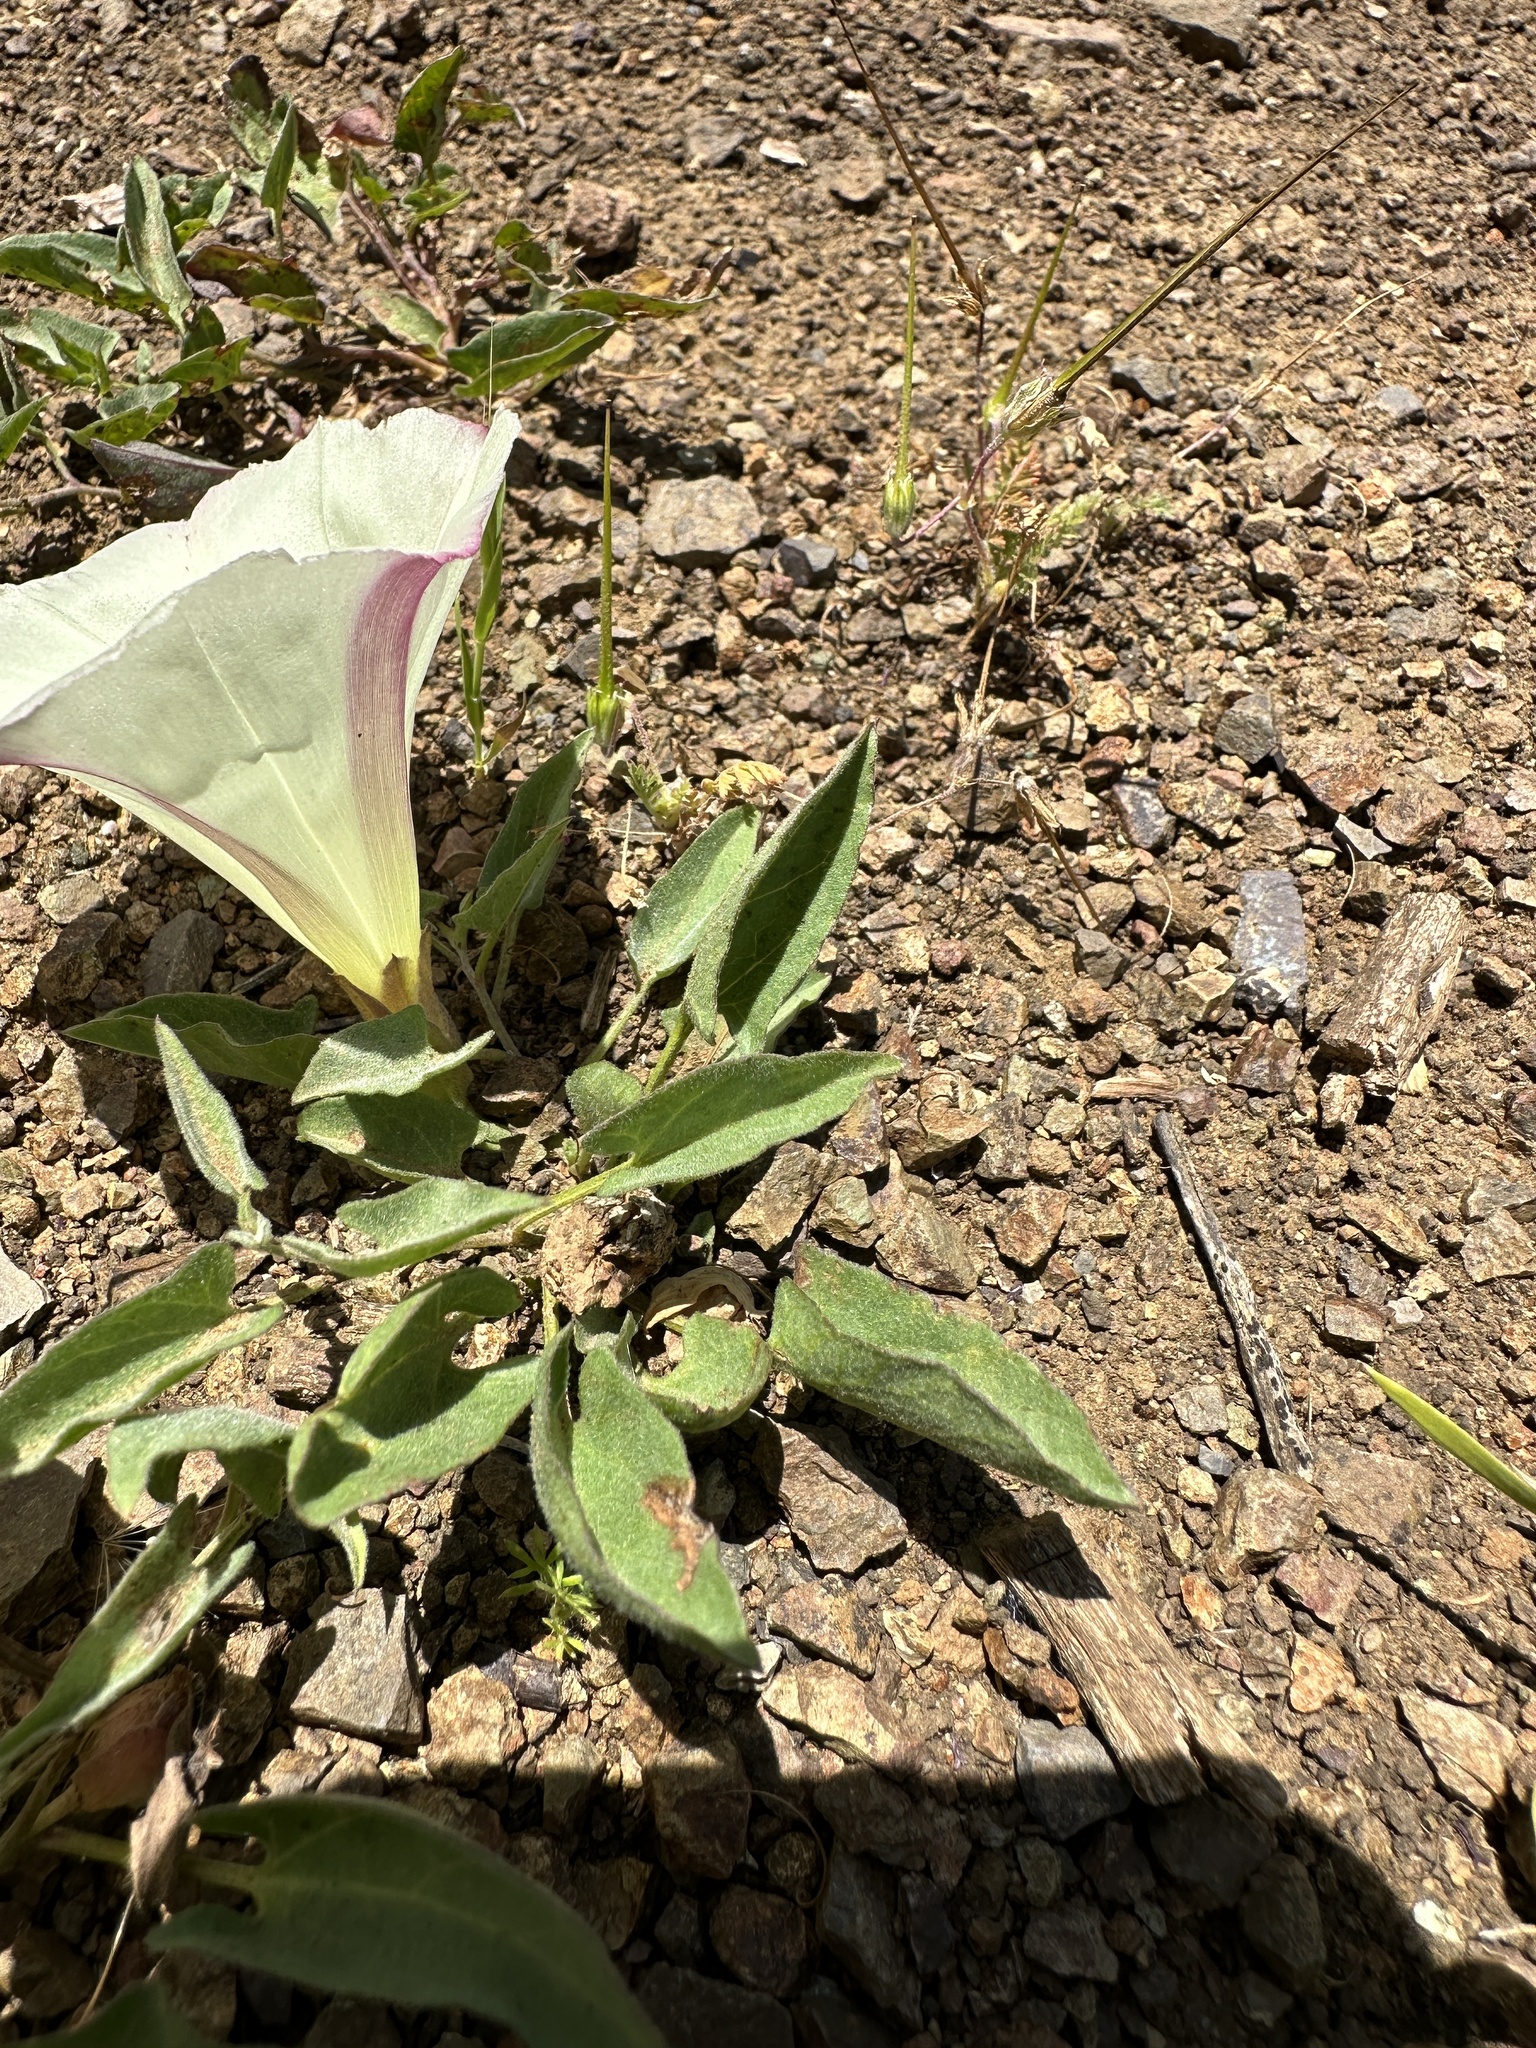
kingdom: Plantae
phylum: Tracheophyta
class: Magnoliopsida
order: Solanales
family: Convolvulaceae
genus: Calystegia
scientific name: Calystegia subacaulis
